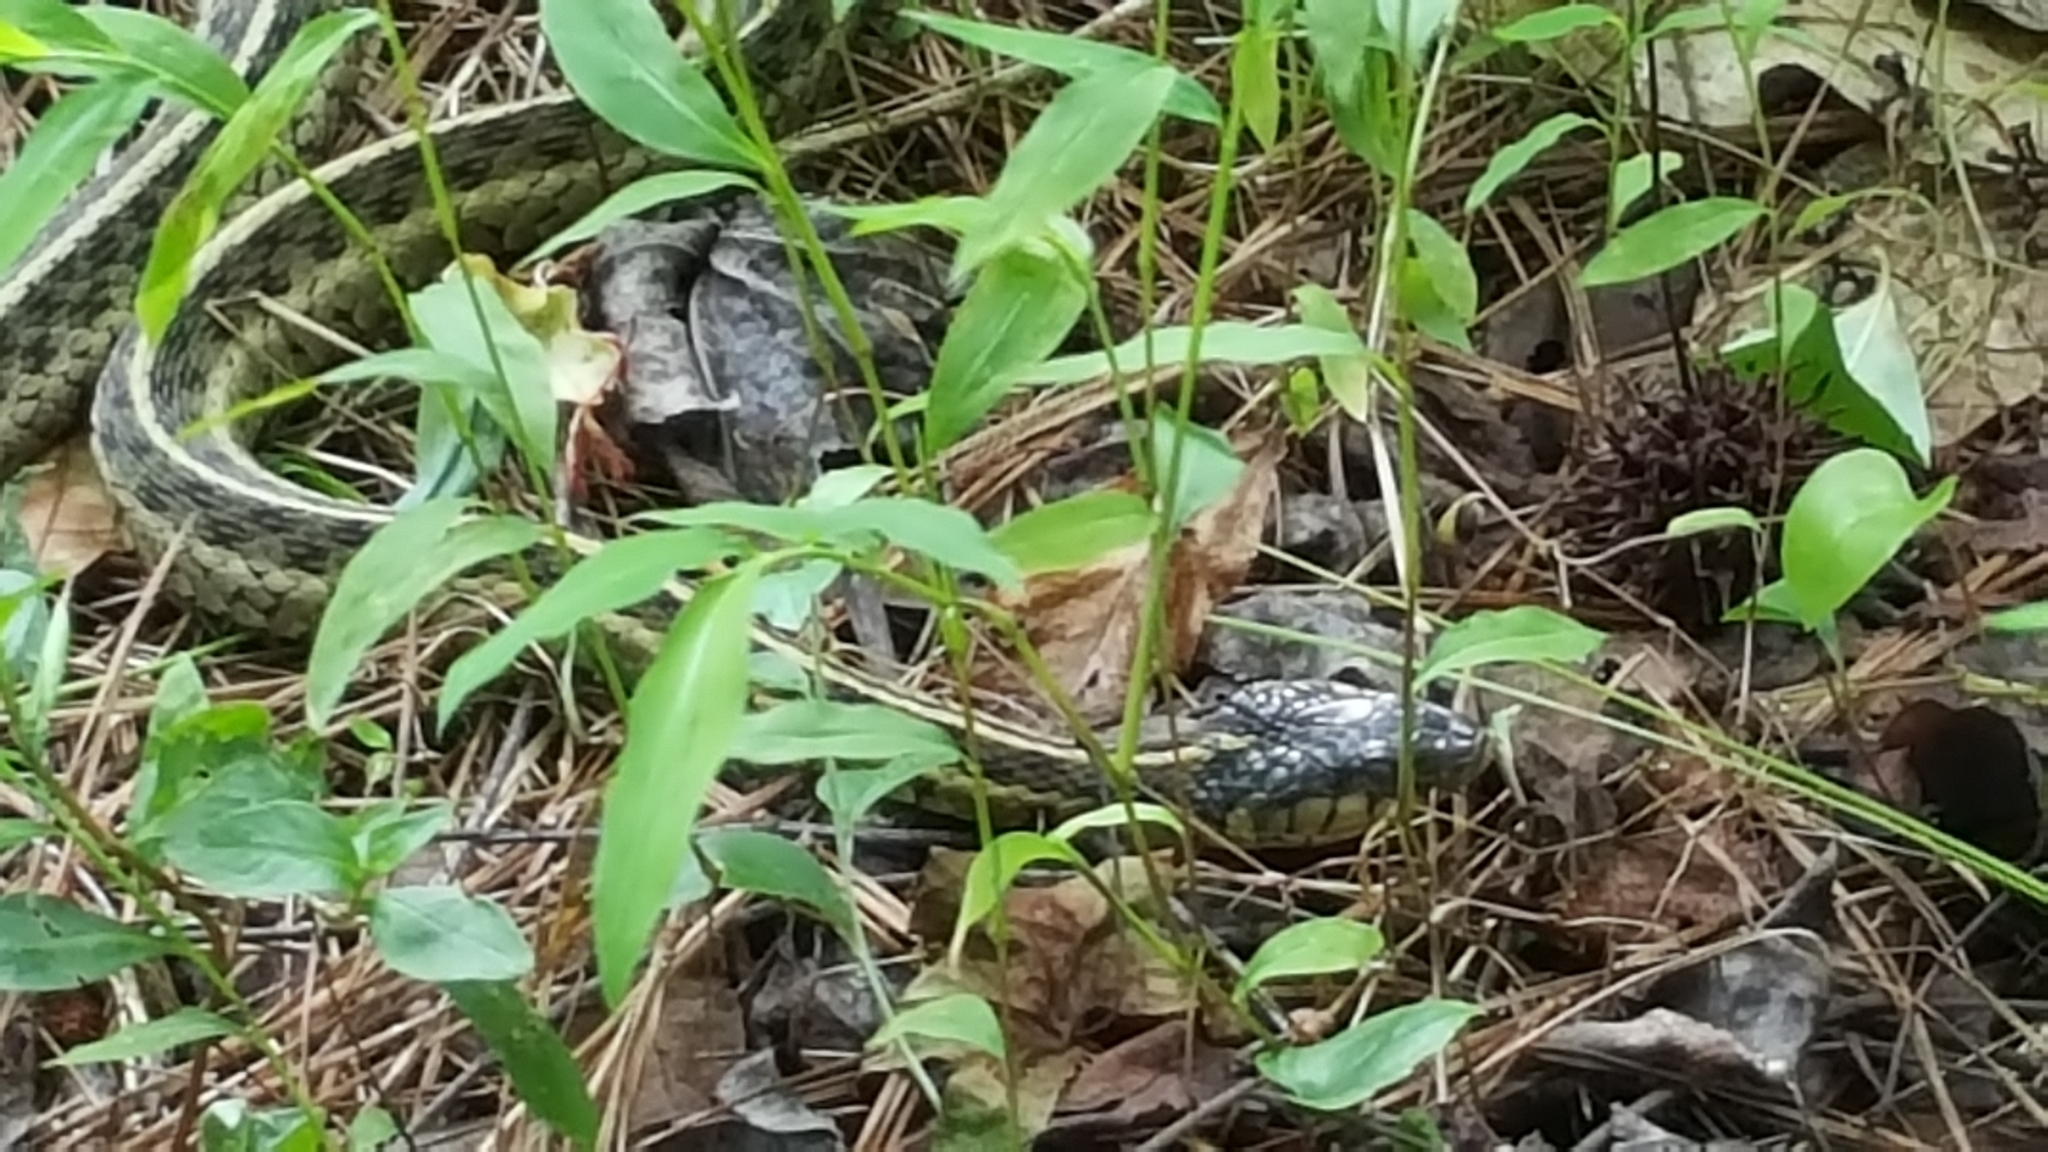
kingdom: Animalia
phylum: Chordata
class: Squamata
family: Colubridae
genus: Thamnophis
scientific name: Thamnophis sirtalis
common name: Common garter snake
